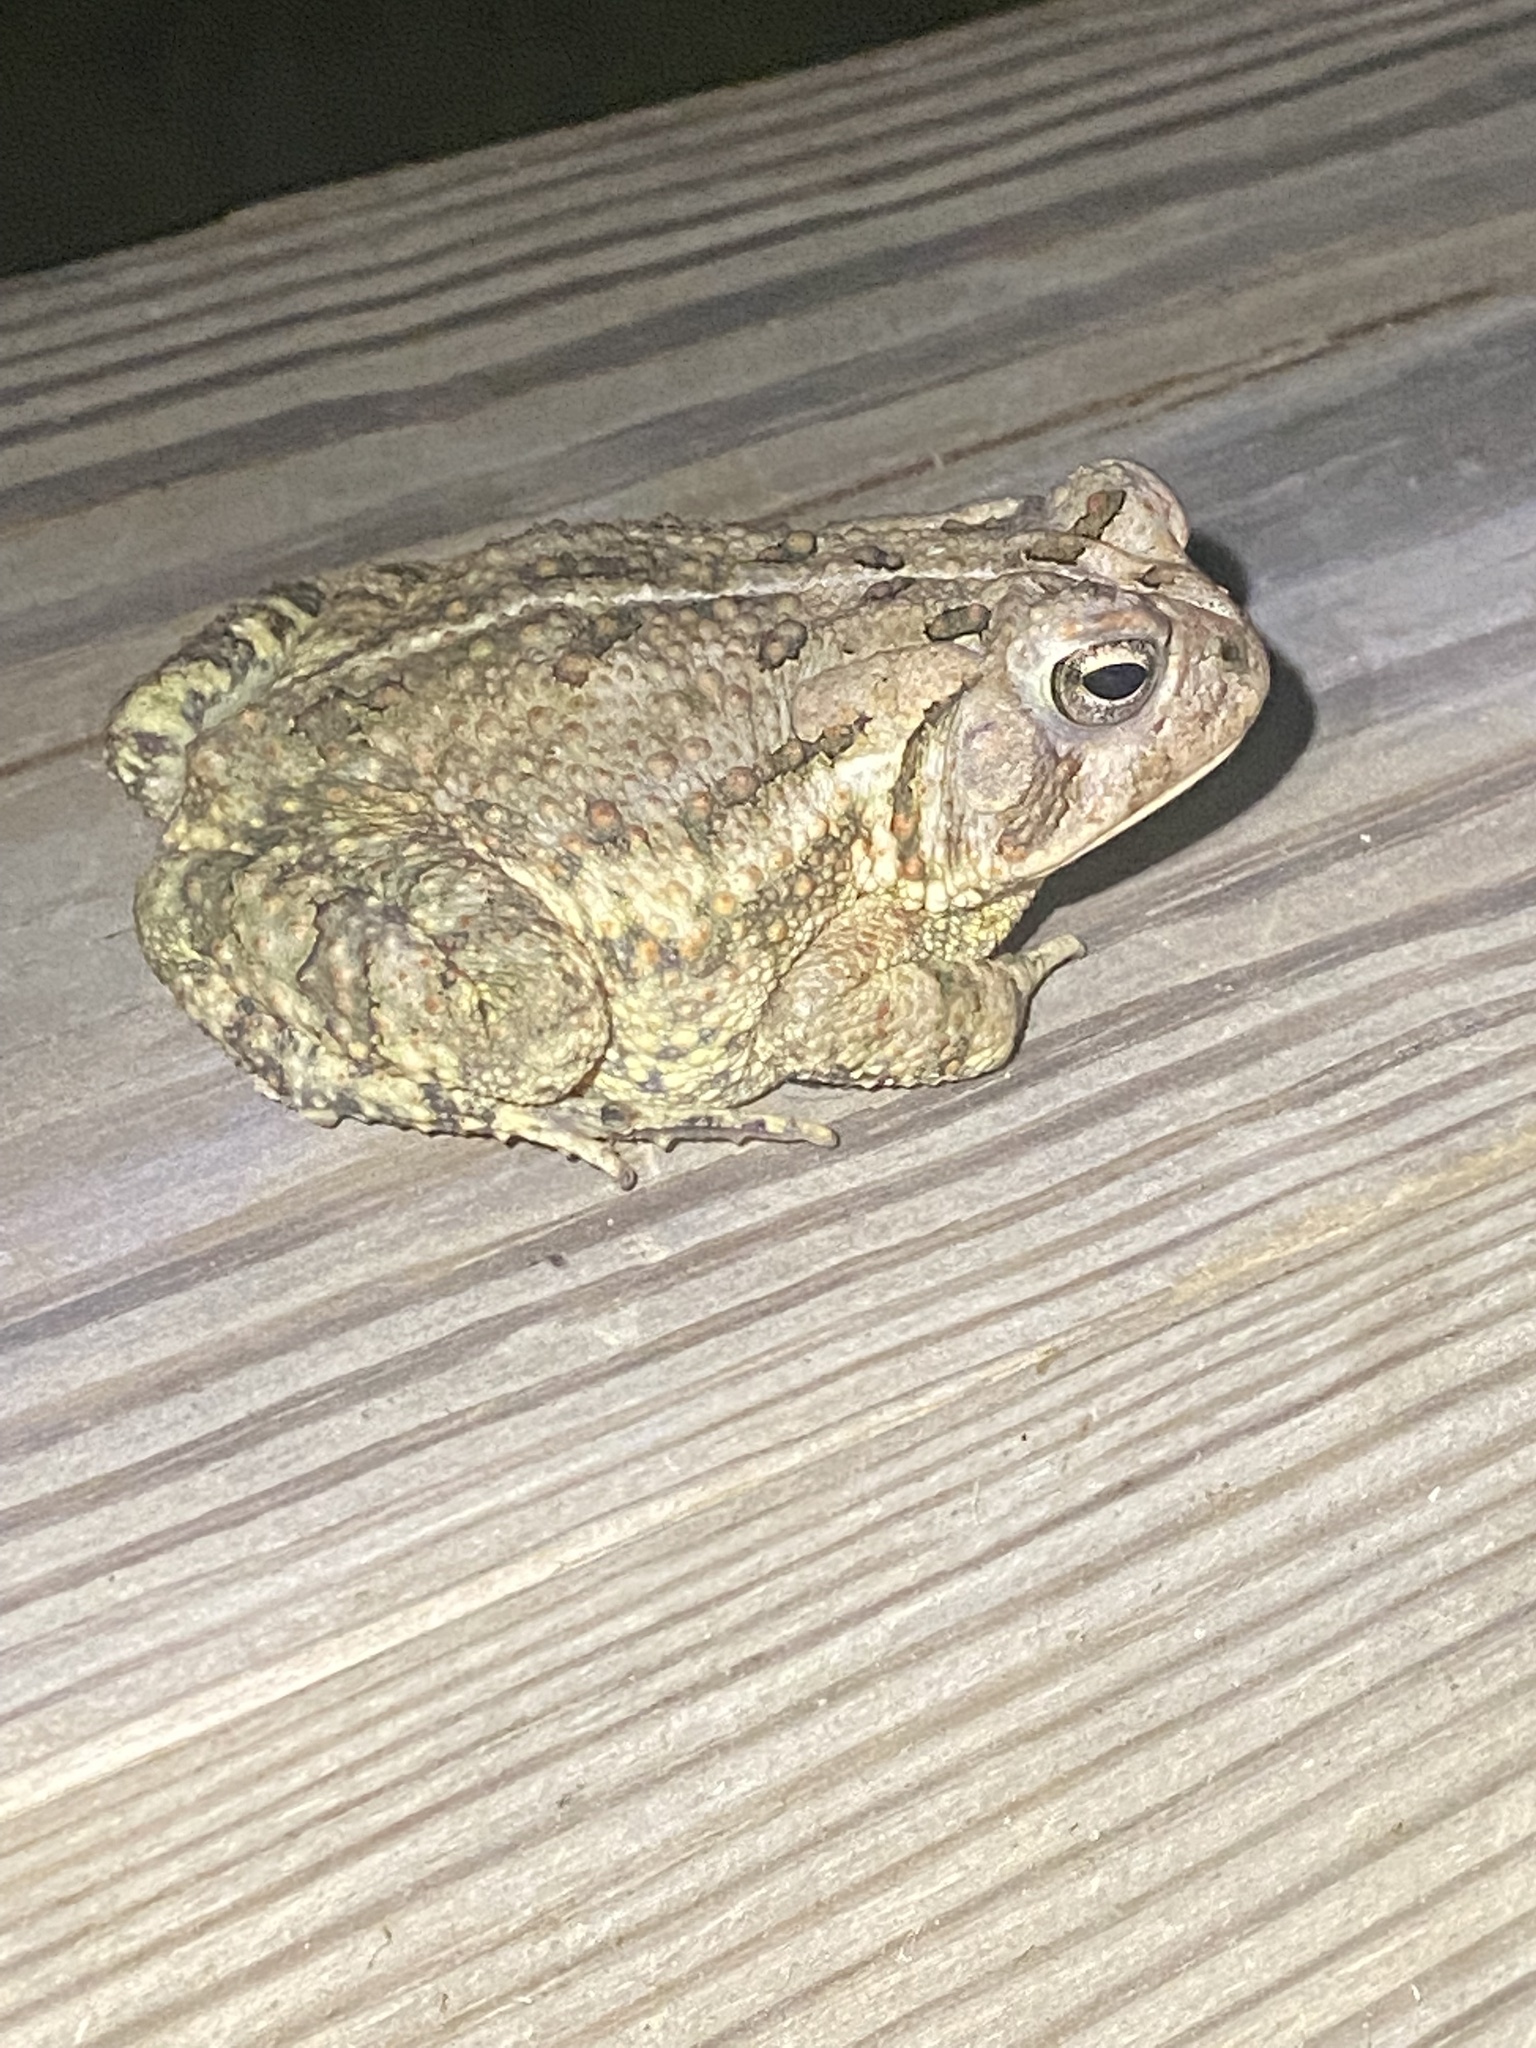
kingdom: Animalia
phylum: Chordata
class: Amphibia
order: Anura
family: Bufonidae
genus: Anaxyrus
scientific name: Anaxyrus fowleri
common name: Fowler's toad
